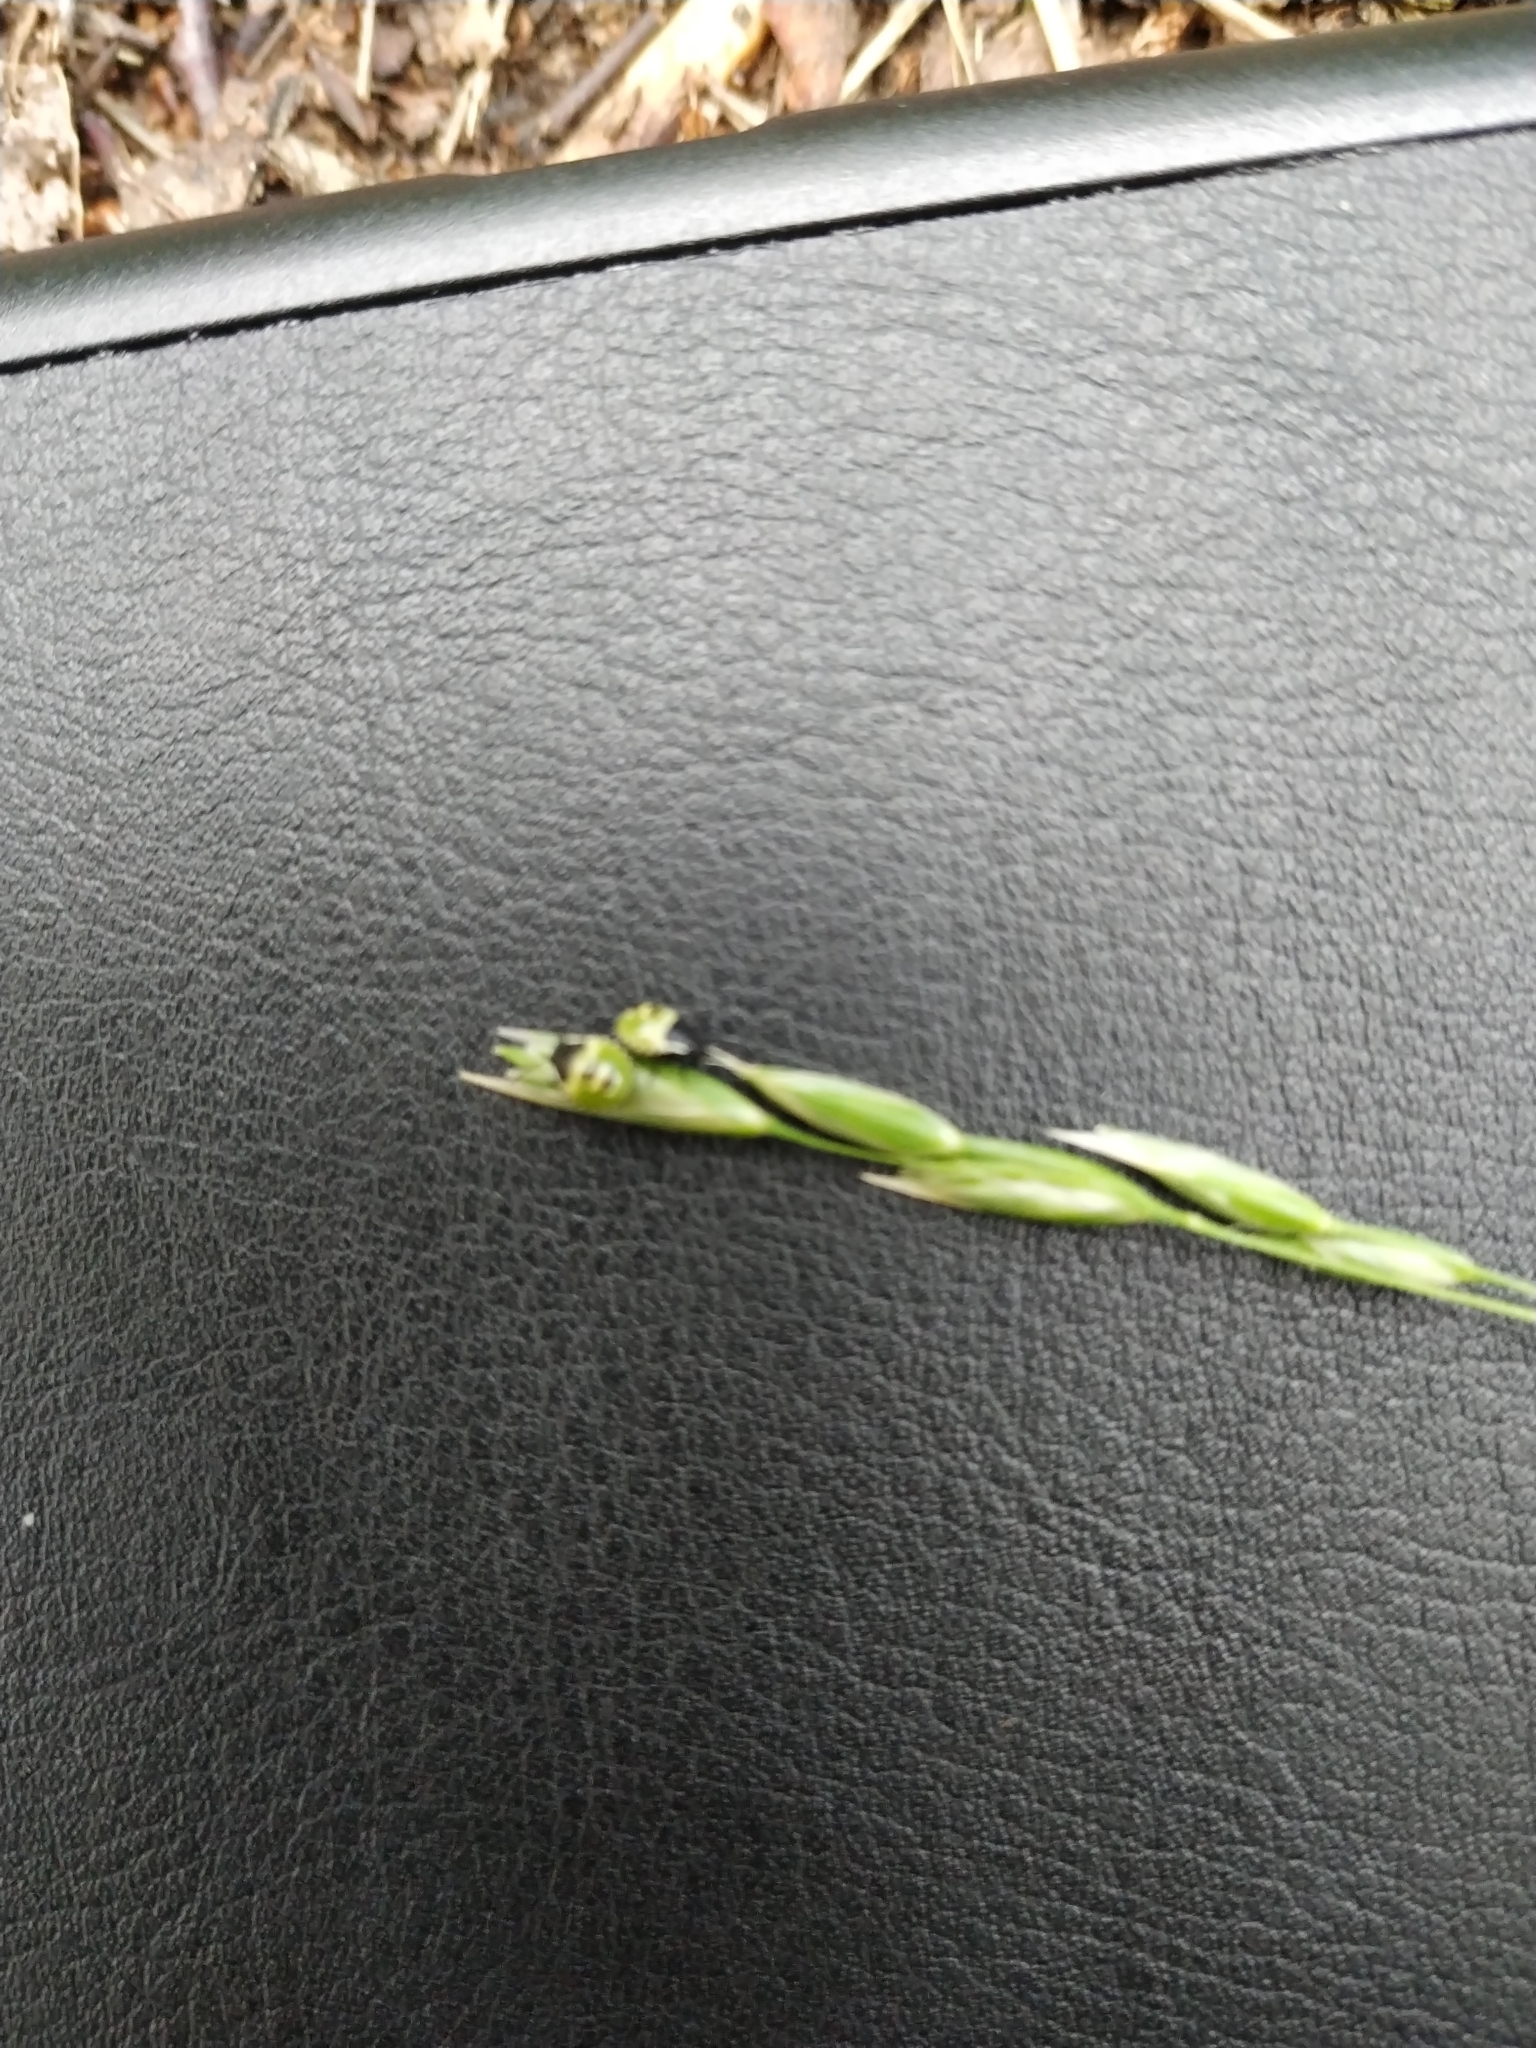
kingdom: Plantae
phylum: Tracheophyta
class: Liliopsida
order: Poales
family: Poaceae
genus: Danthonia
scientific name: Danthonia decumbens
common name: Common heathgrass
